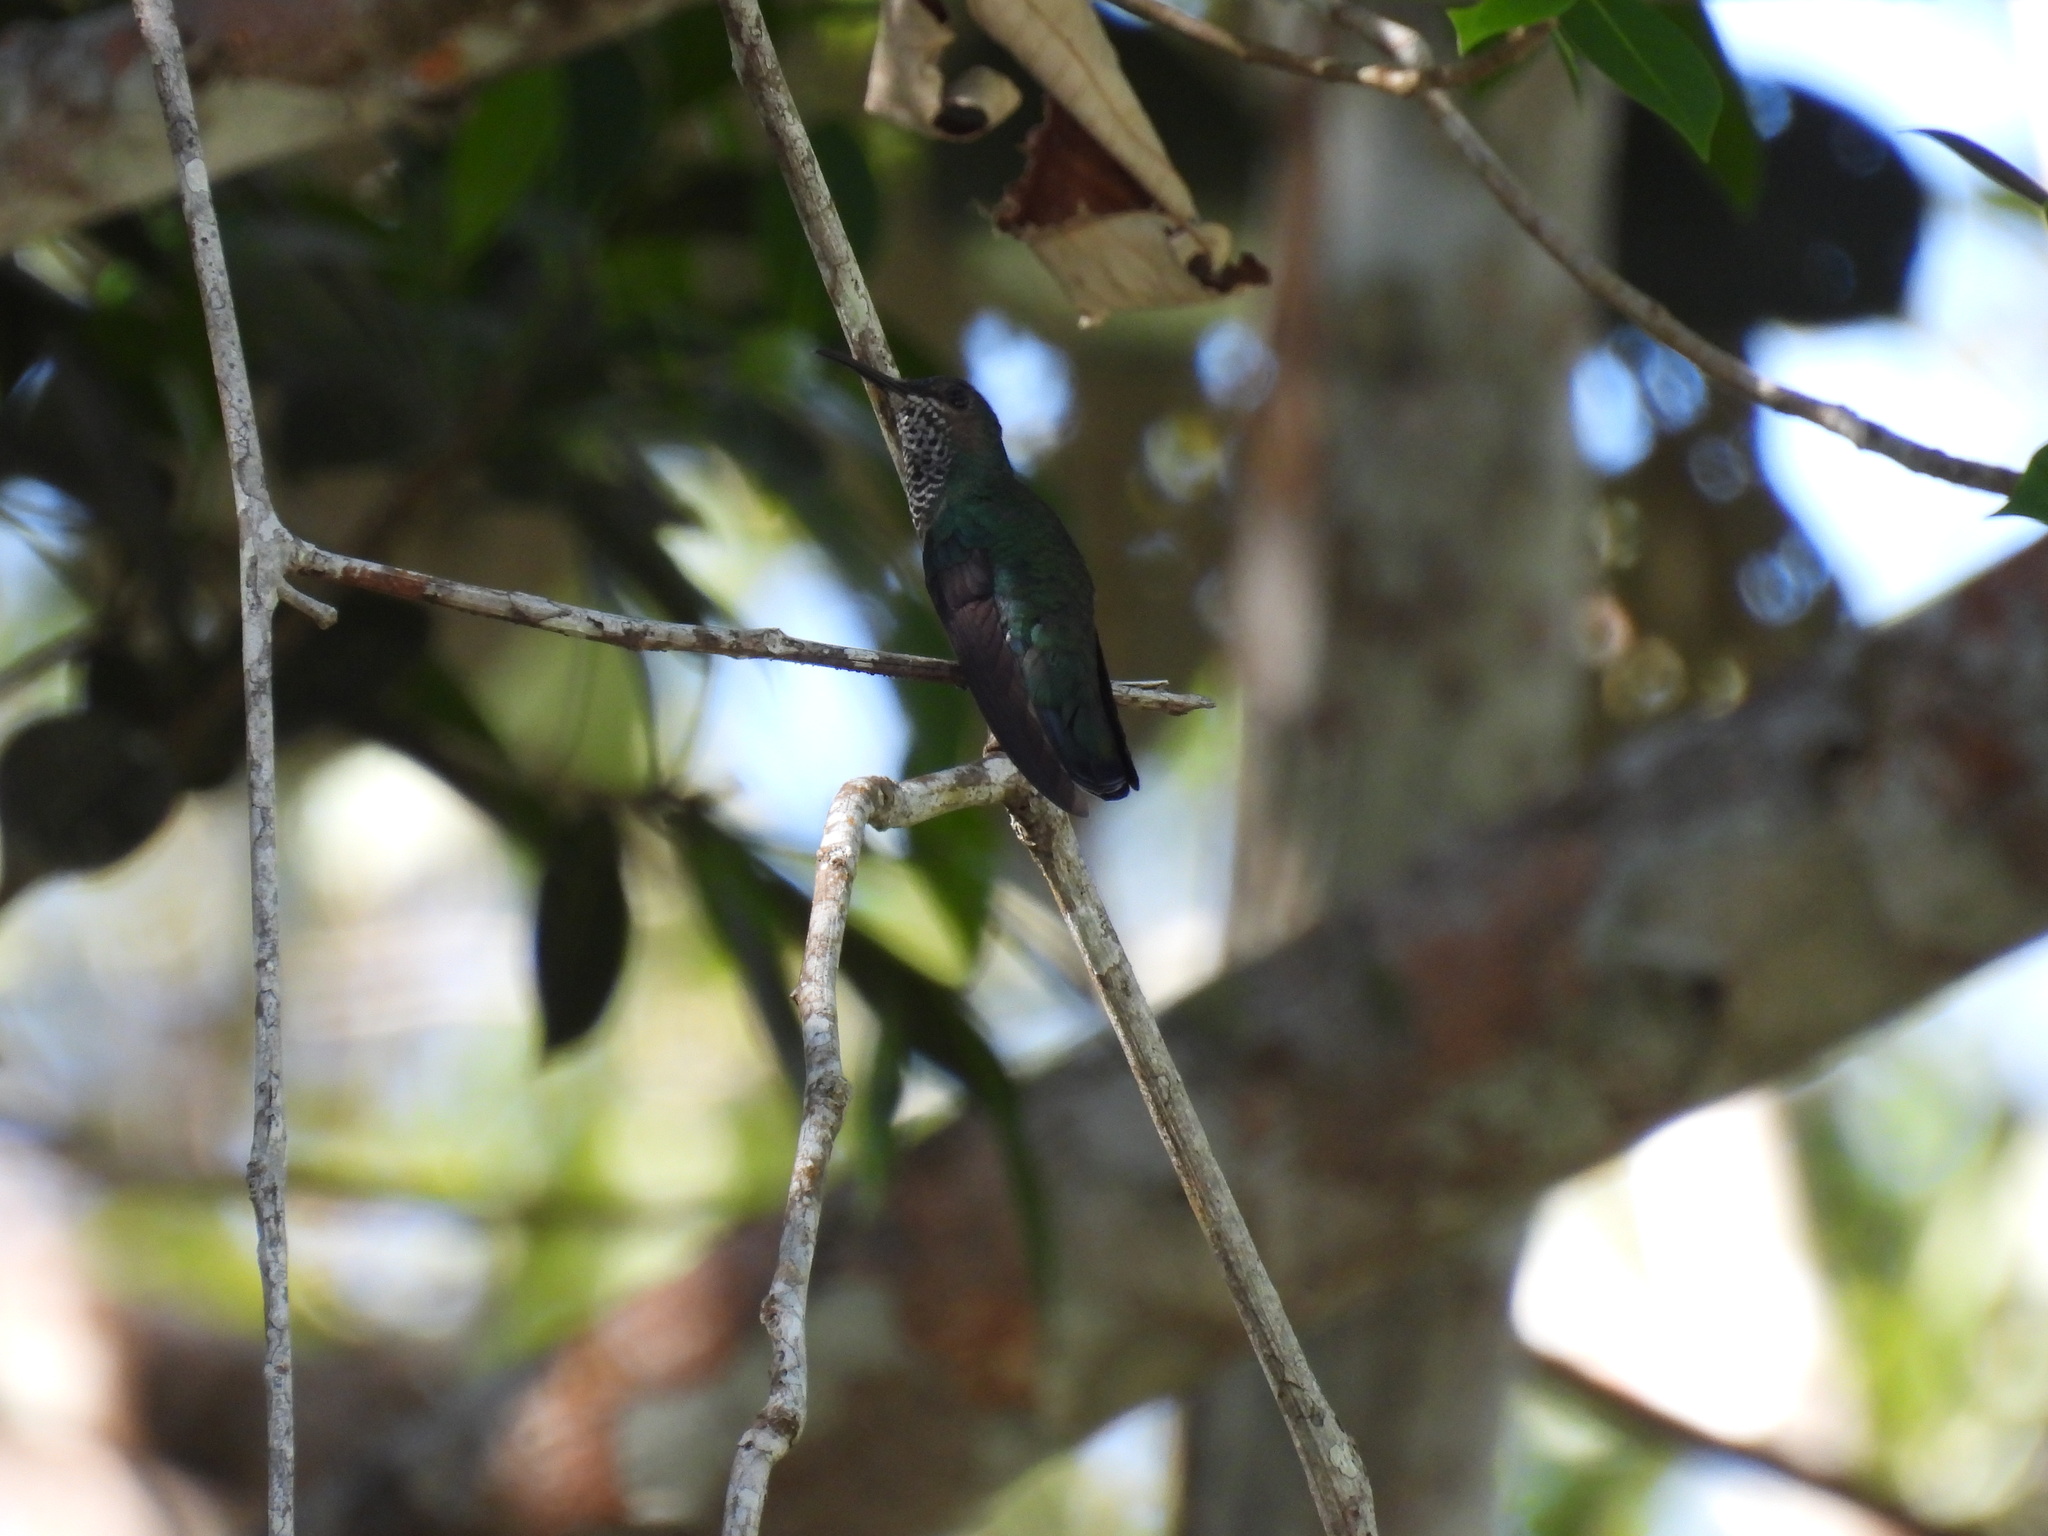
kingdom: Animalia
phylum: Chordata
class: Aves
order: Apodiformes
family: Trochilidae
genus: Florisuga
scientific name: Florisuga mellivora
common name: White-necked jacobin
